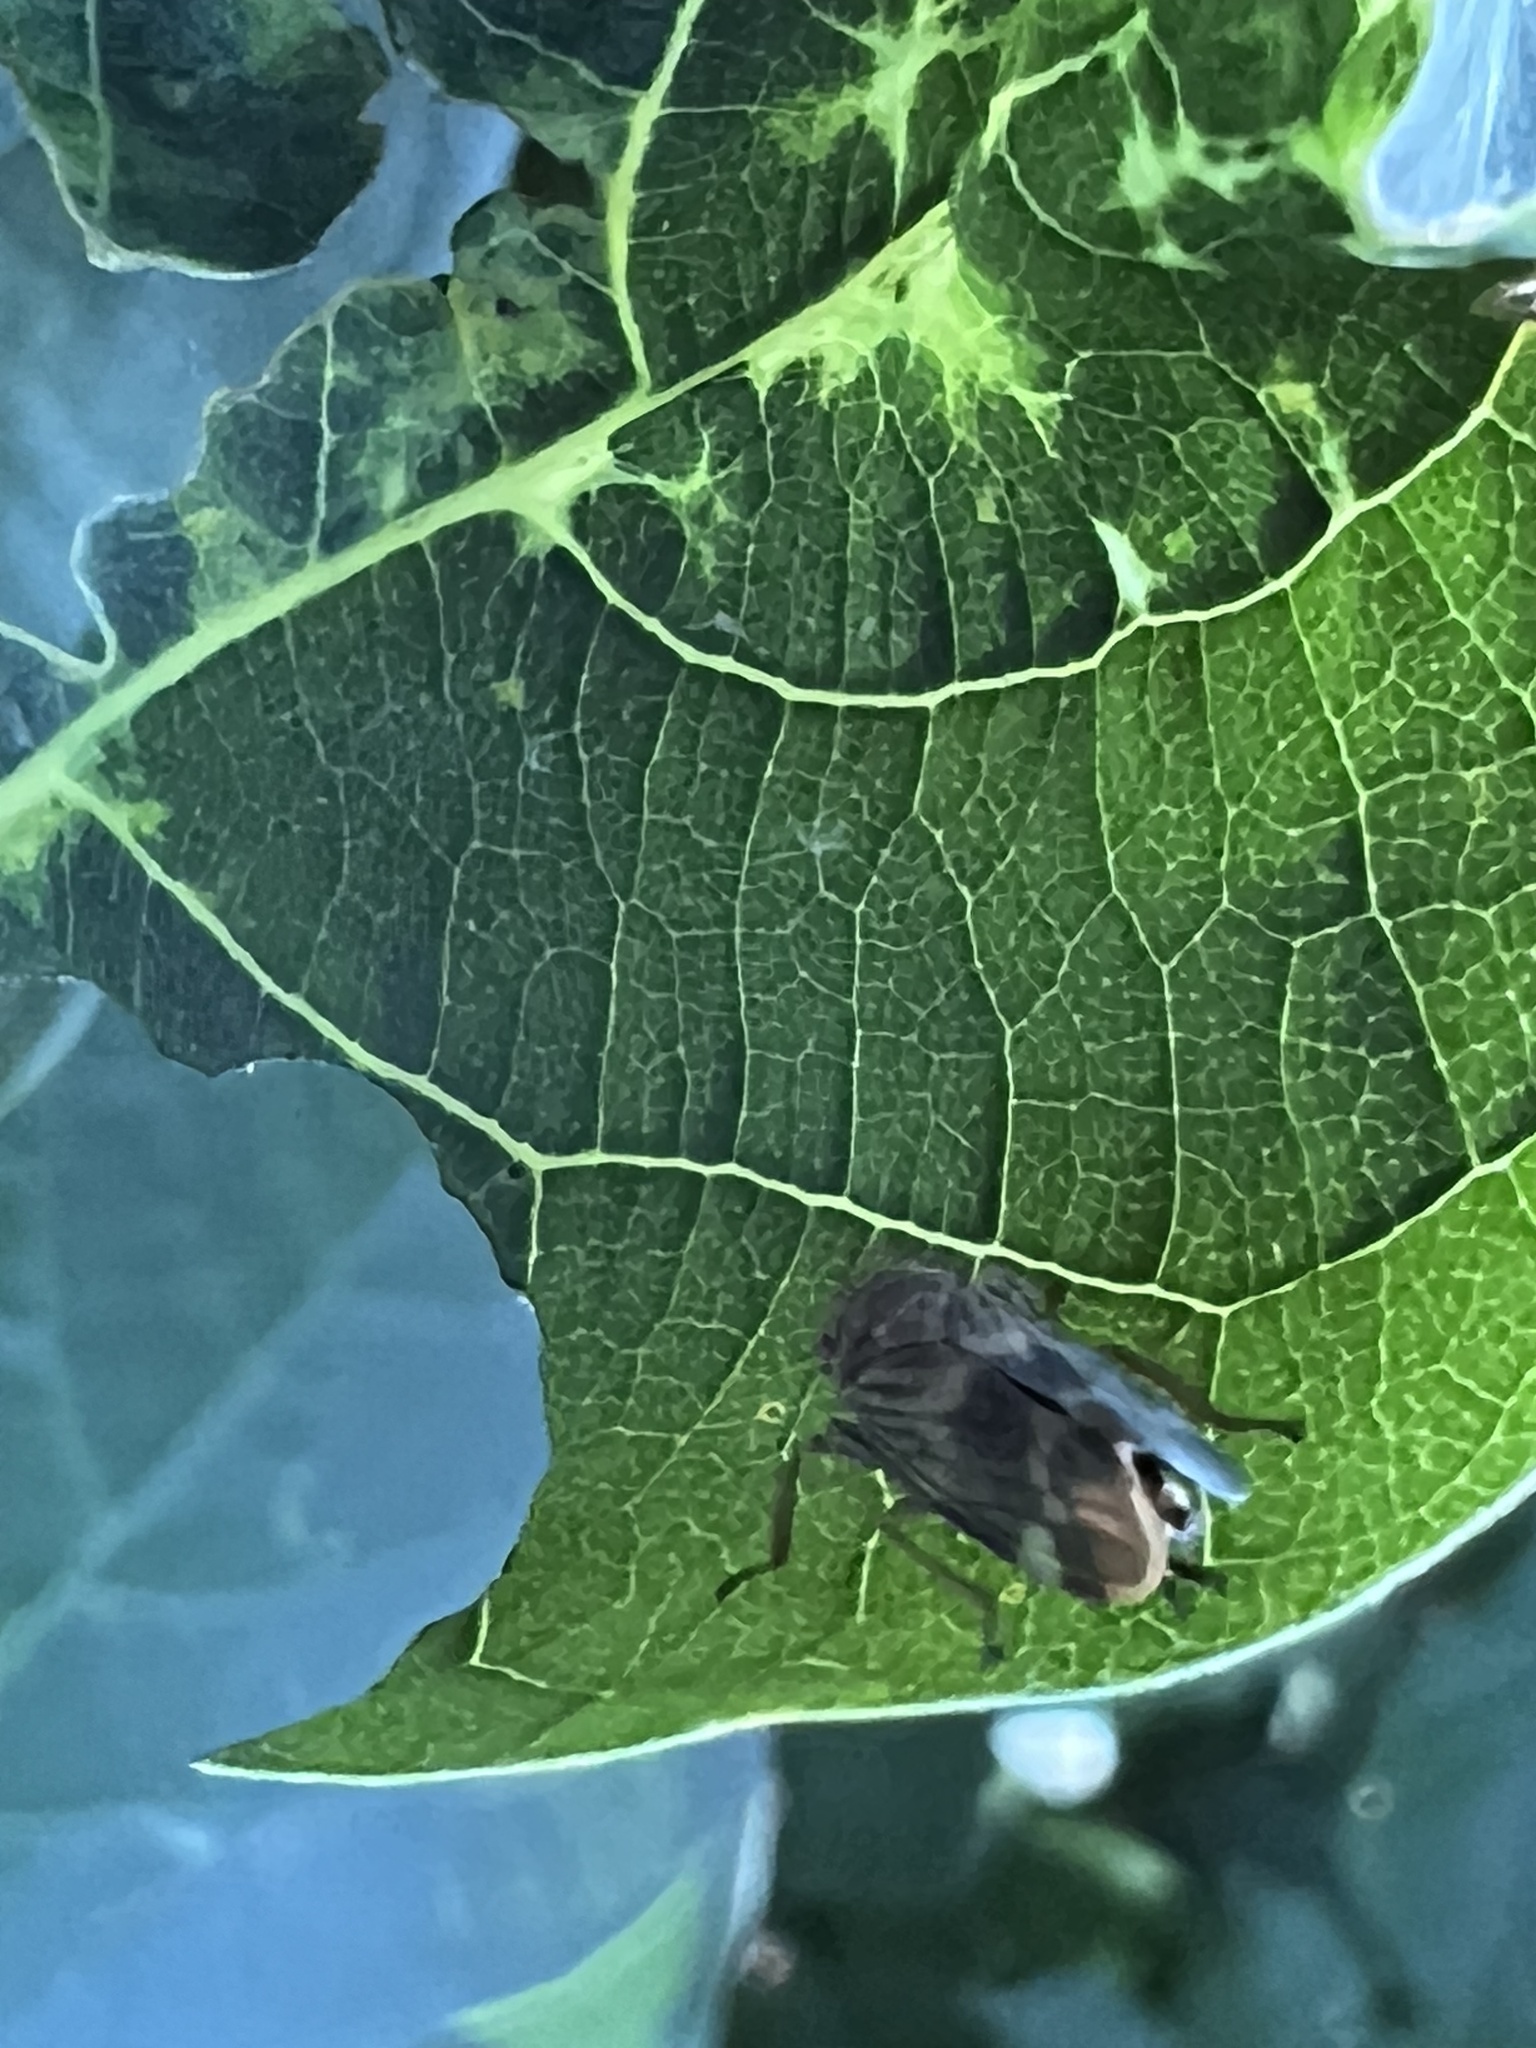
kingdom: Animalia
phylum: Arthropoda
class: Insecta
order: Hemiptera
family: Cicadellidae
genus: Jikradia
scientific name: Jikradia olitoria
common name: Coppery leafhopper
